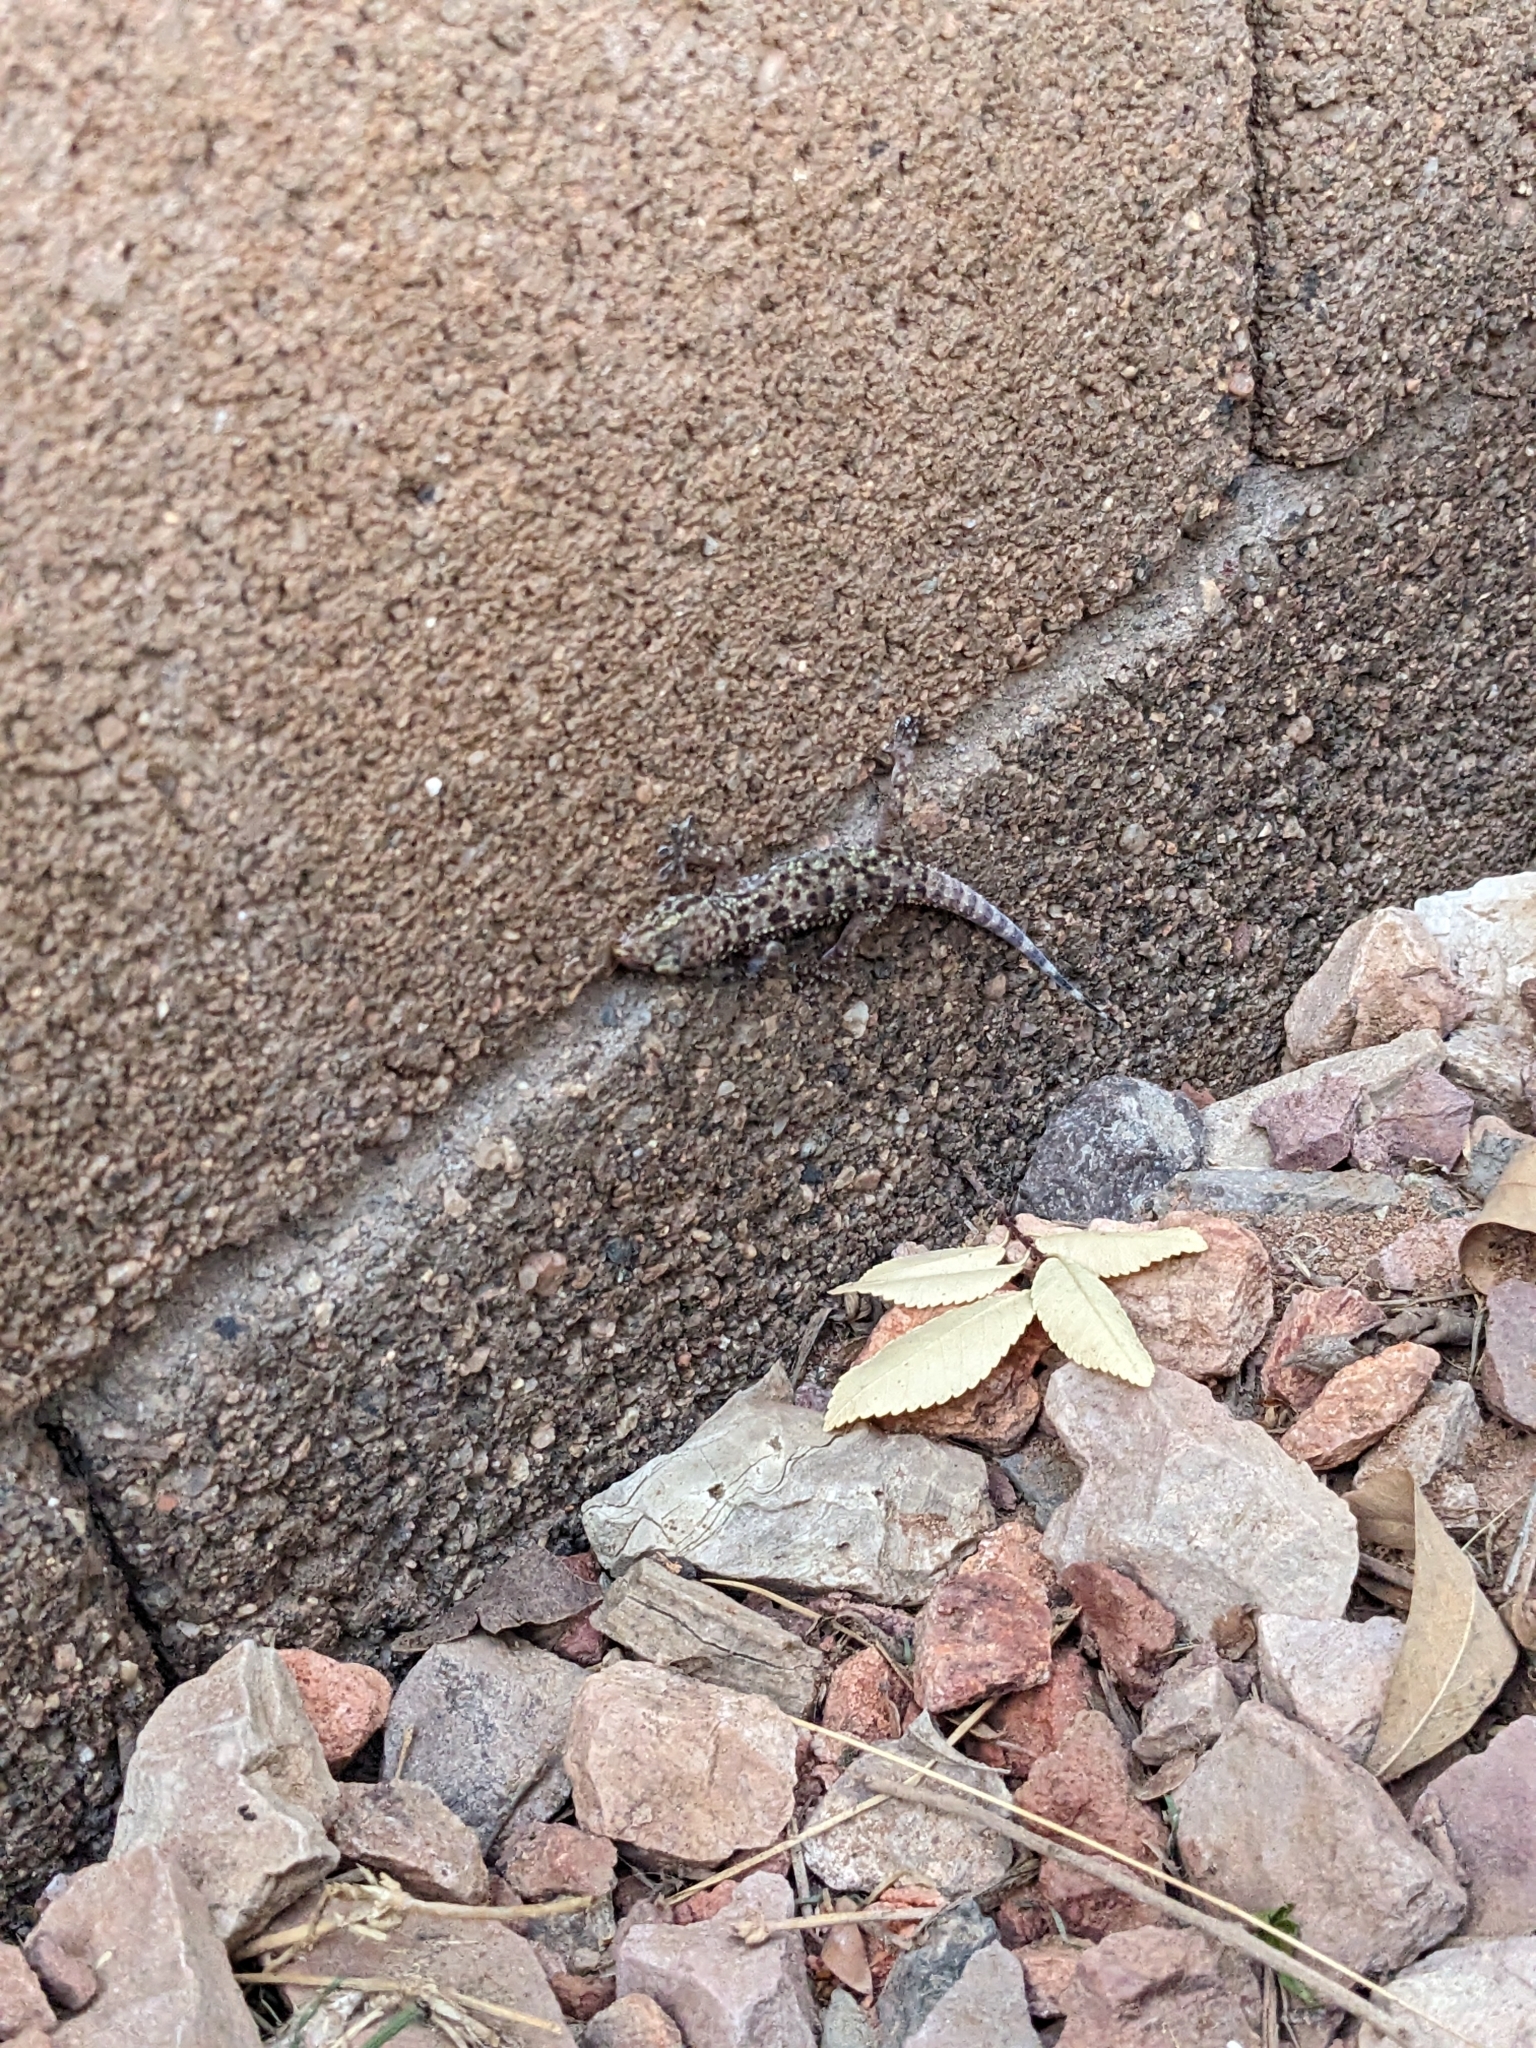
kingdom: Animalia
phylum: Chordata
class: Squamata
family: Gekkonidae
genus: Hemidactylus
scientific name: Hemidactylus turcicus
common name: Turkish gecko
